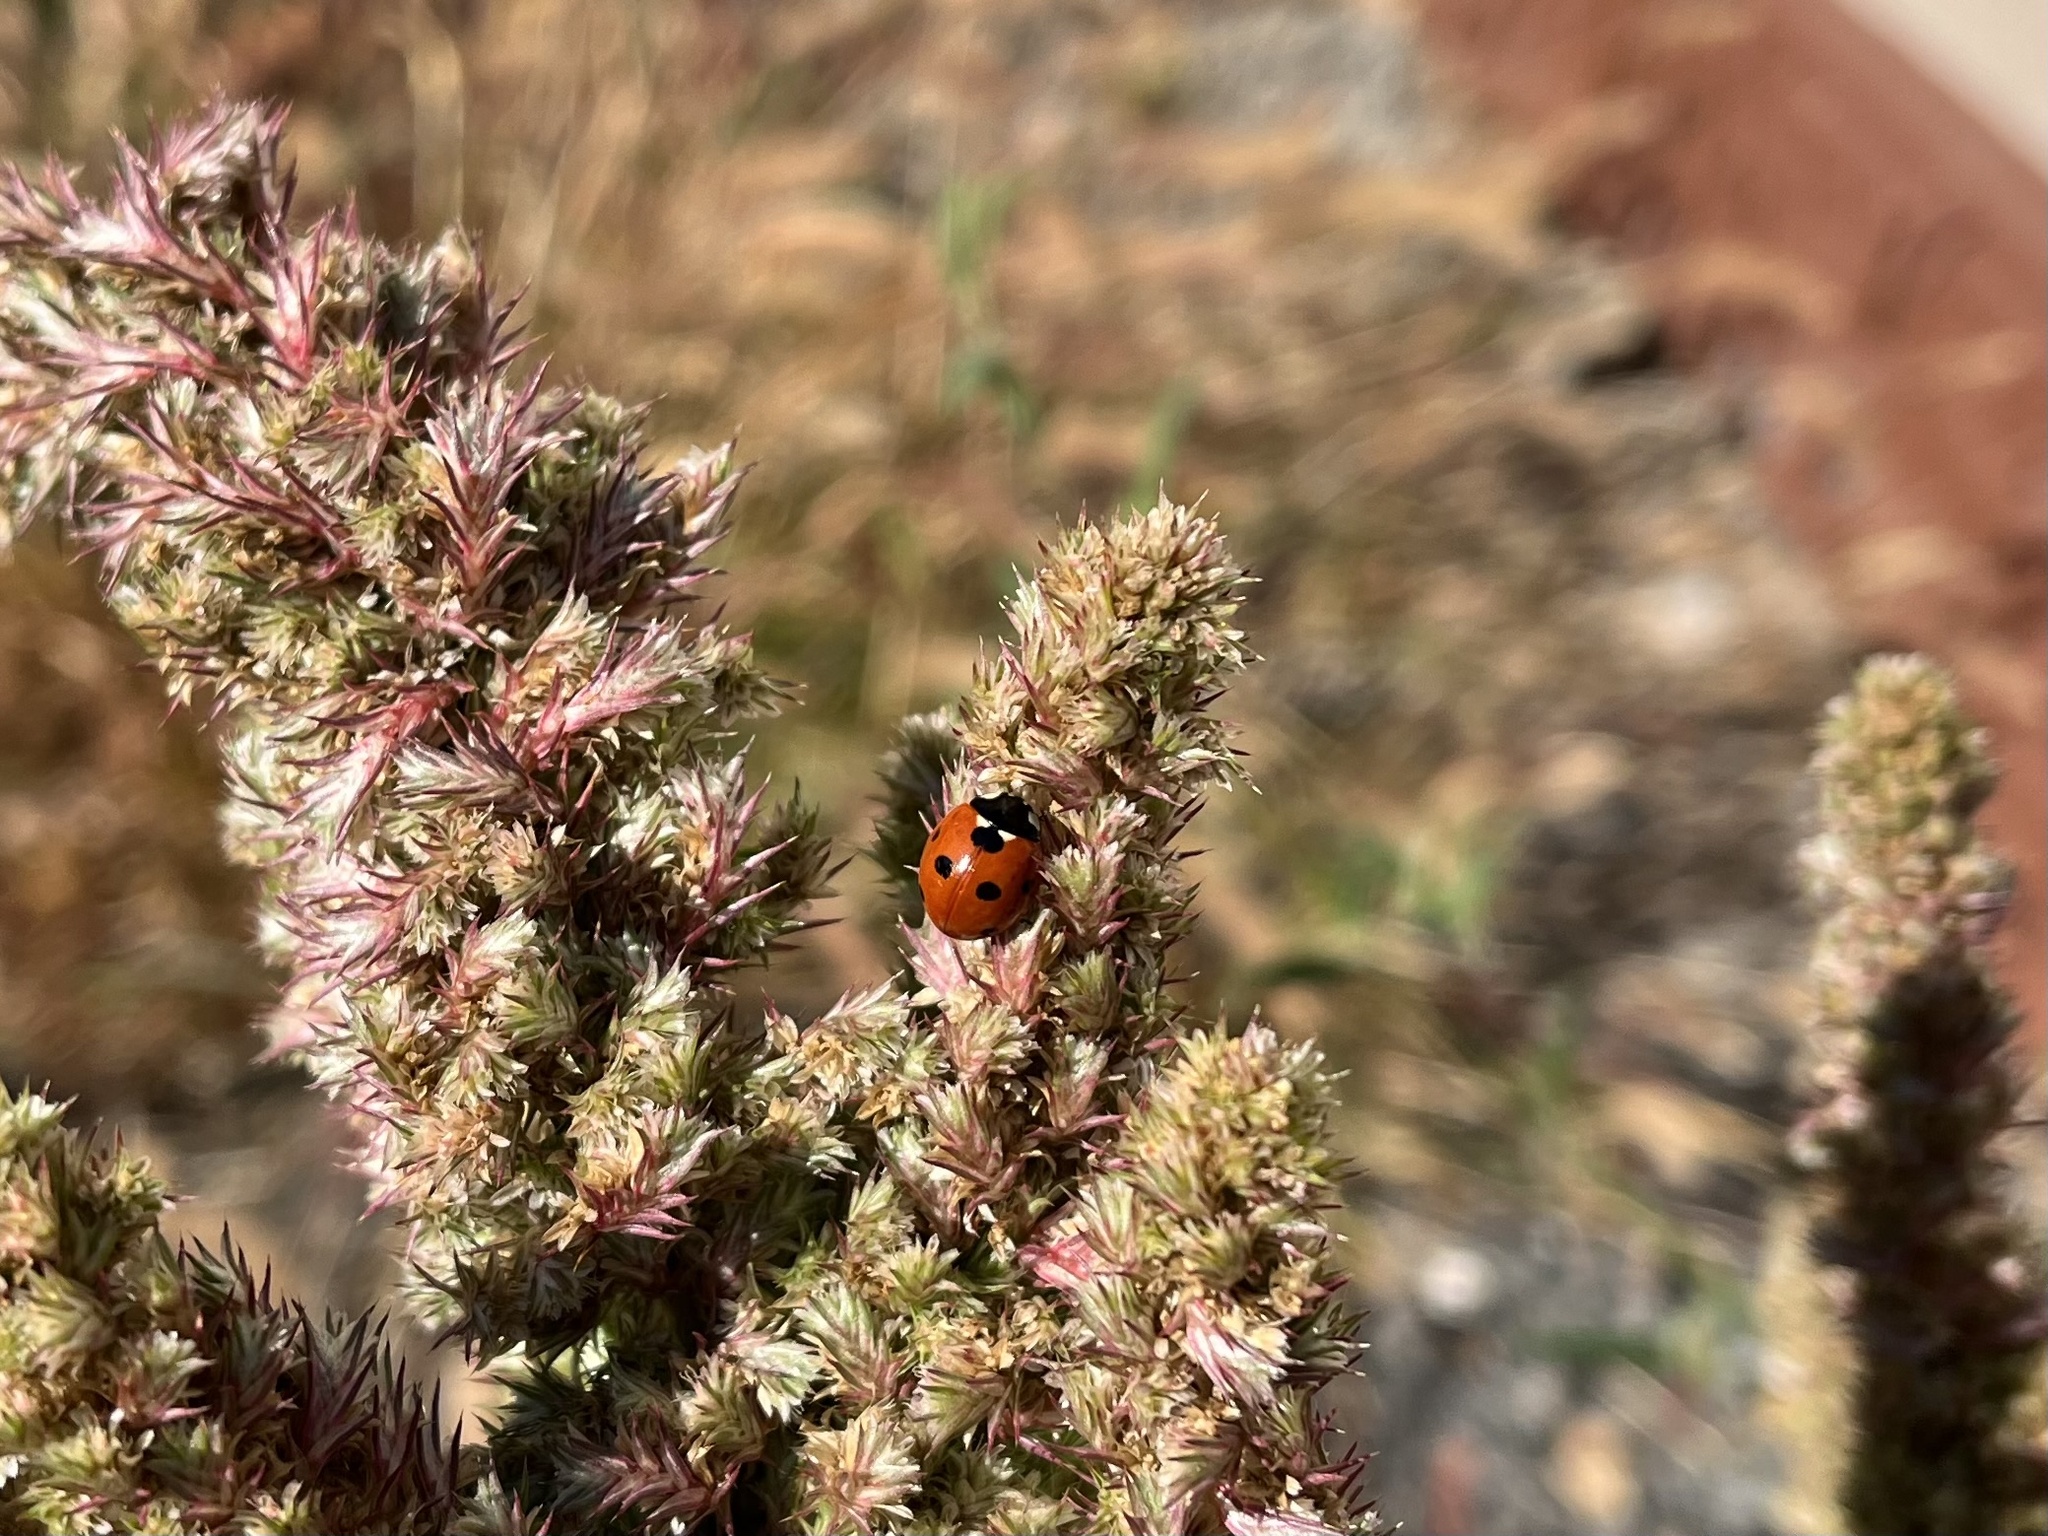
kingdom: Animalia
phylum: Arthropoda
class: Insecta
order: Coleoptera
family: Coccinellidae
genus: Coccinella
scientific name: Coccinella septempunctata
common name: Sevenspotted lady beetle
